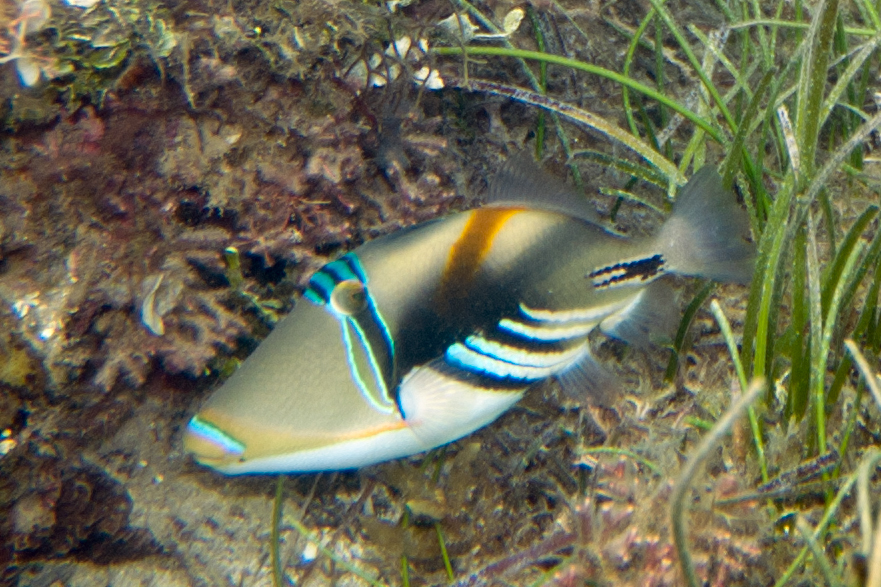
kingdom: Animalia
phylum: Chordata
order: Tetraodontiformes
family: Balistidae
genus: Rhinecanthus
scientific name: Rhinecanthus aculeatus
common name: White-banded triggerfish
